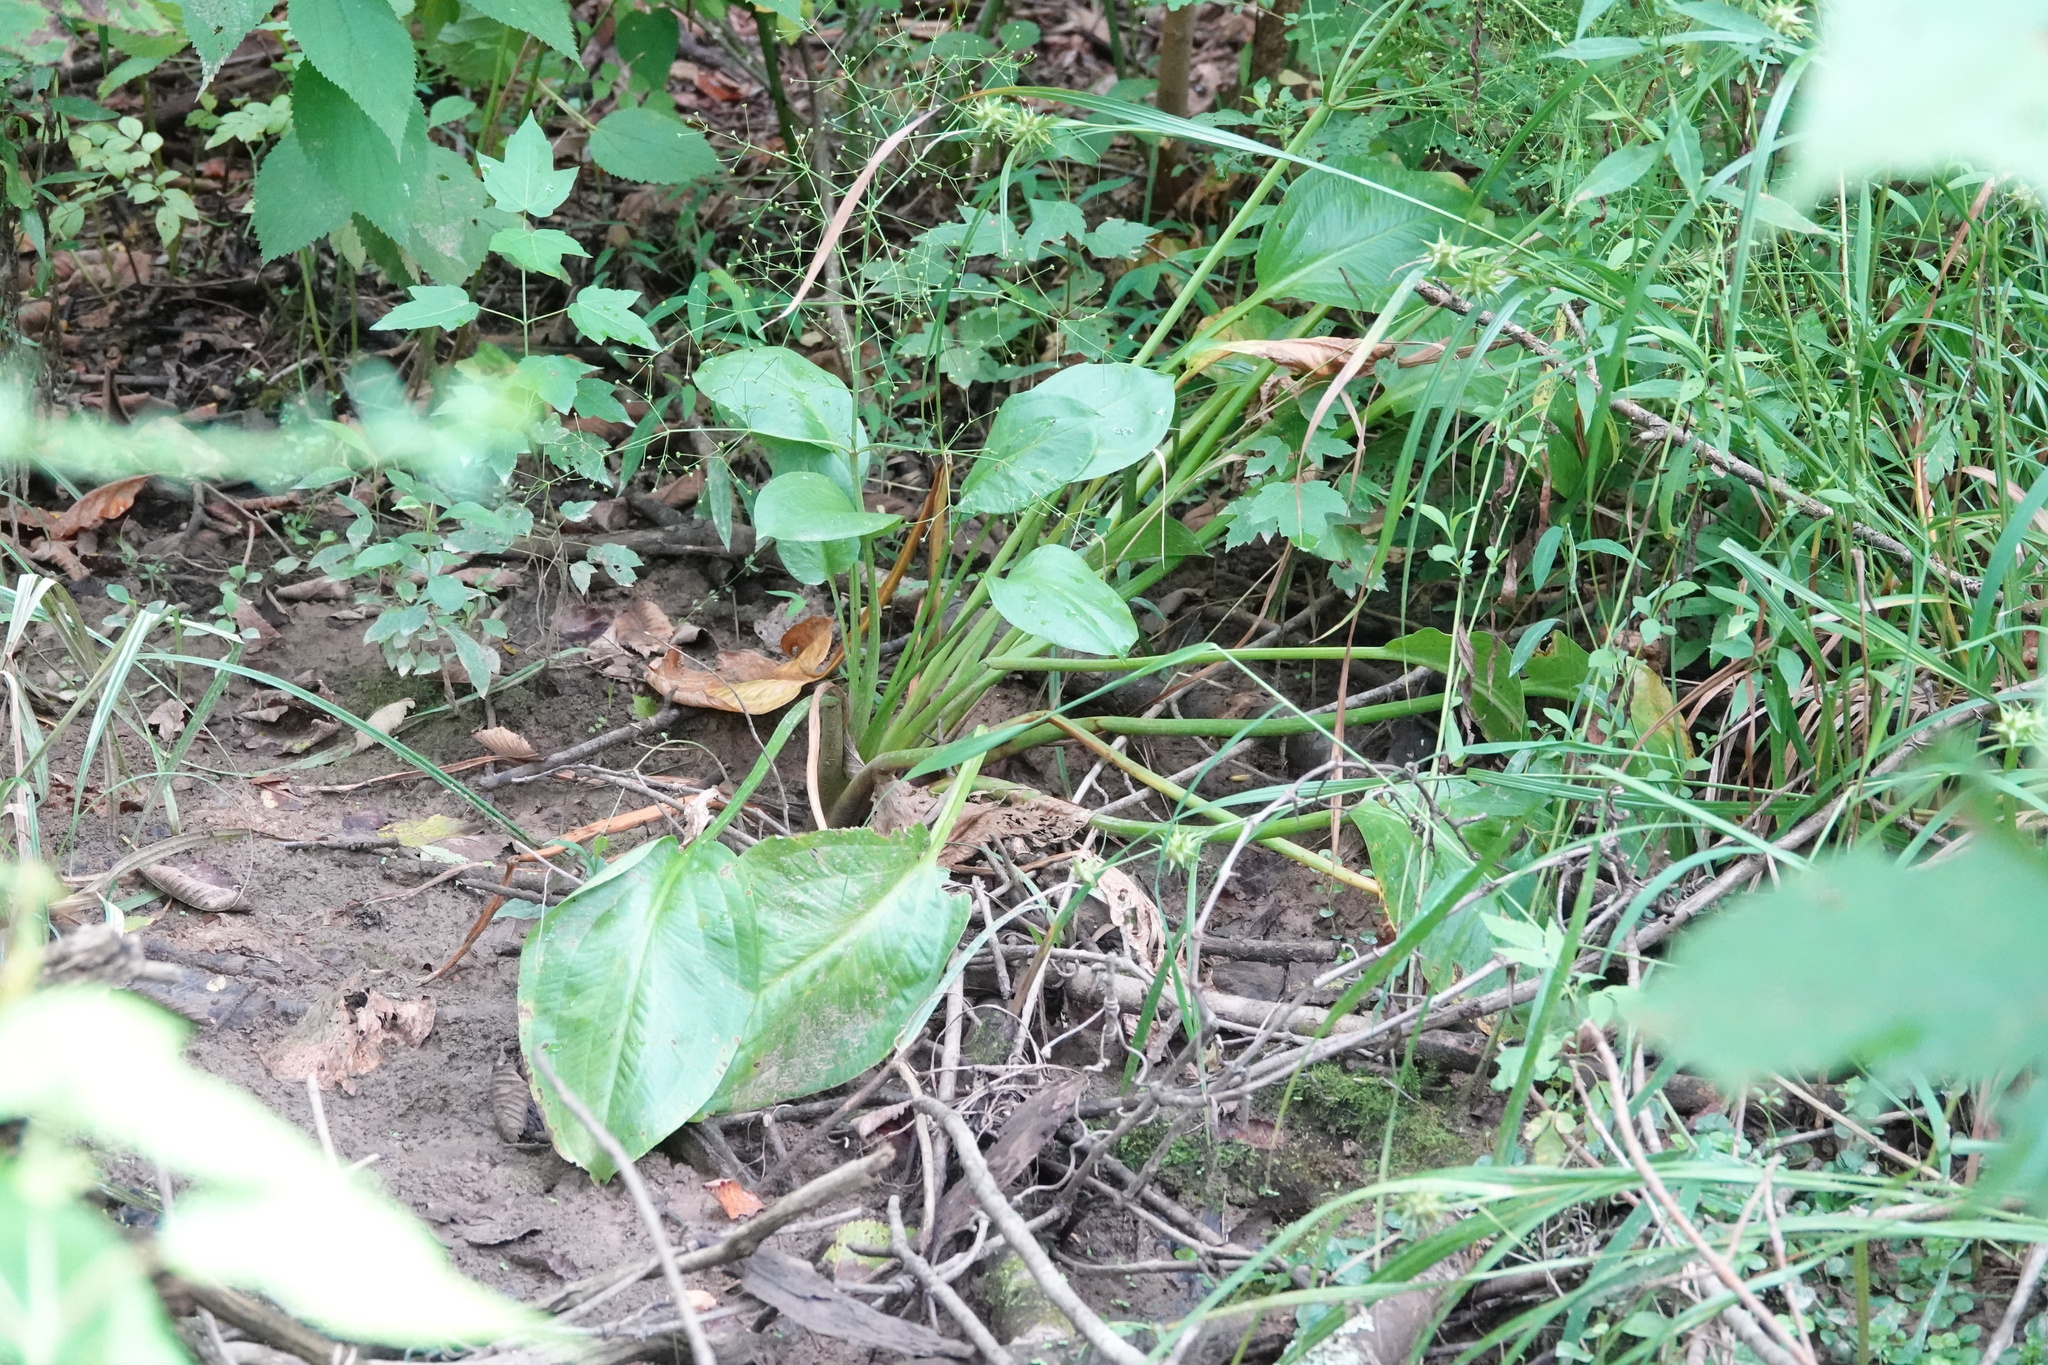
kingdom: Plantae
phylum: Tracheophyta
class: Liliopsida
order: Alismatales
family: Alismataceae
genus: Alisma
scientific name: Alisma subcordatum
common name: Southern water-plantain
